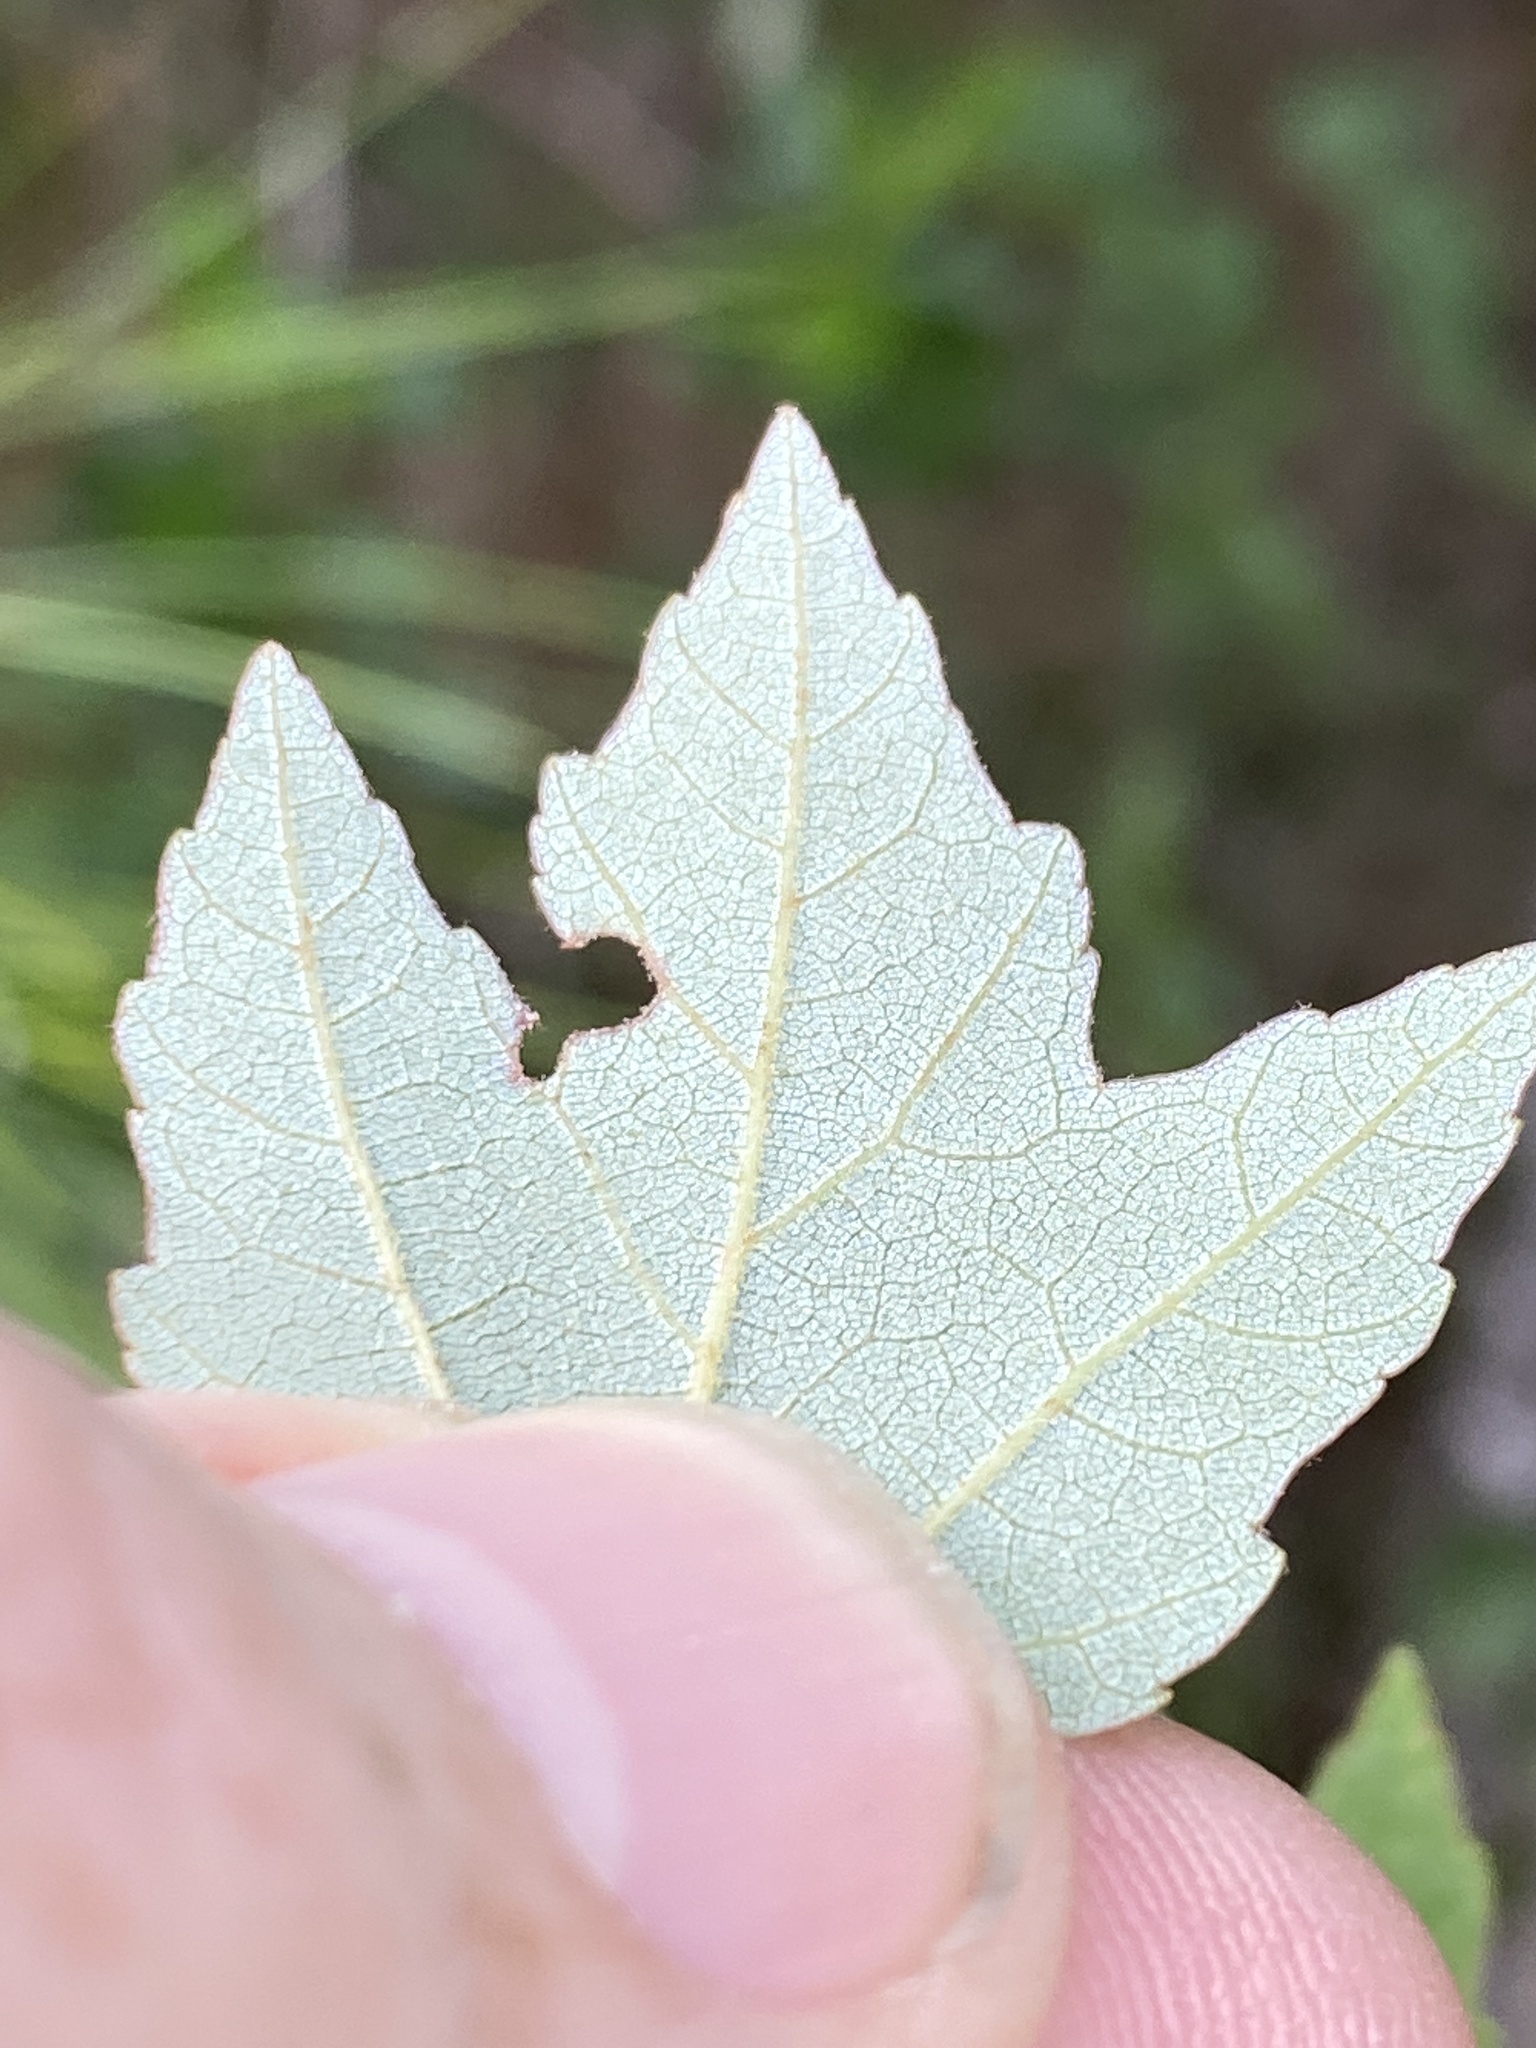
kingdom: Plantae
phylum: Tracheophyta
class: Magnoliopsida
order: Sapindales
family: Sapindaceae
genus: Acer
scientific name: Acer rubrum
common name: Red maple
